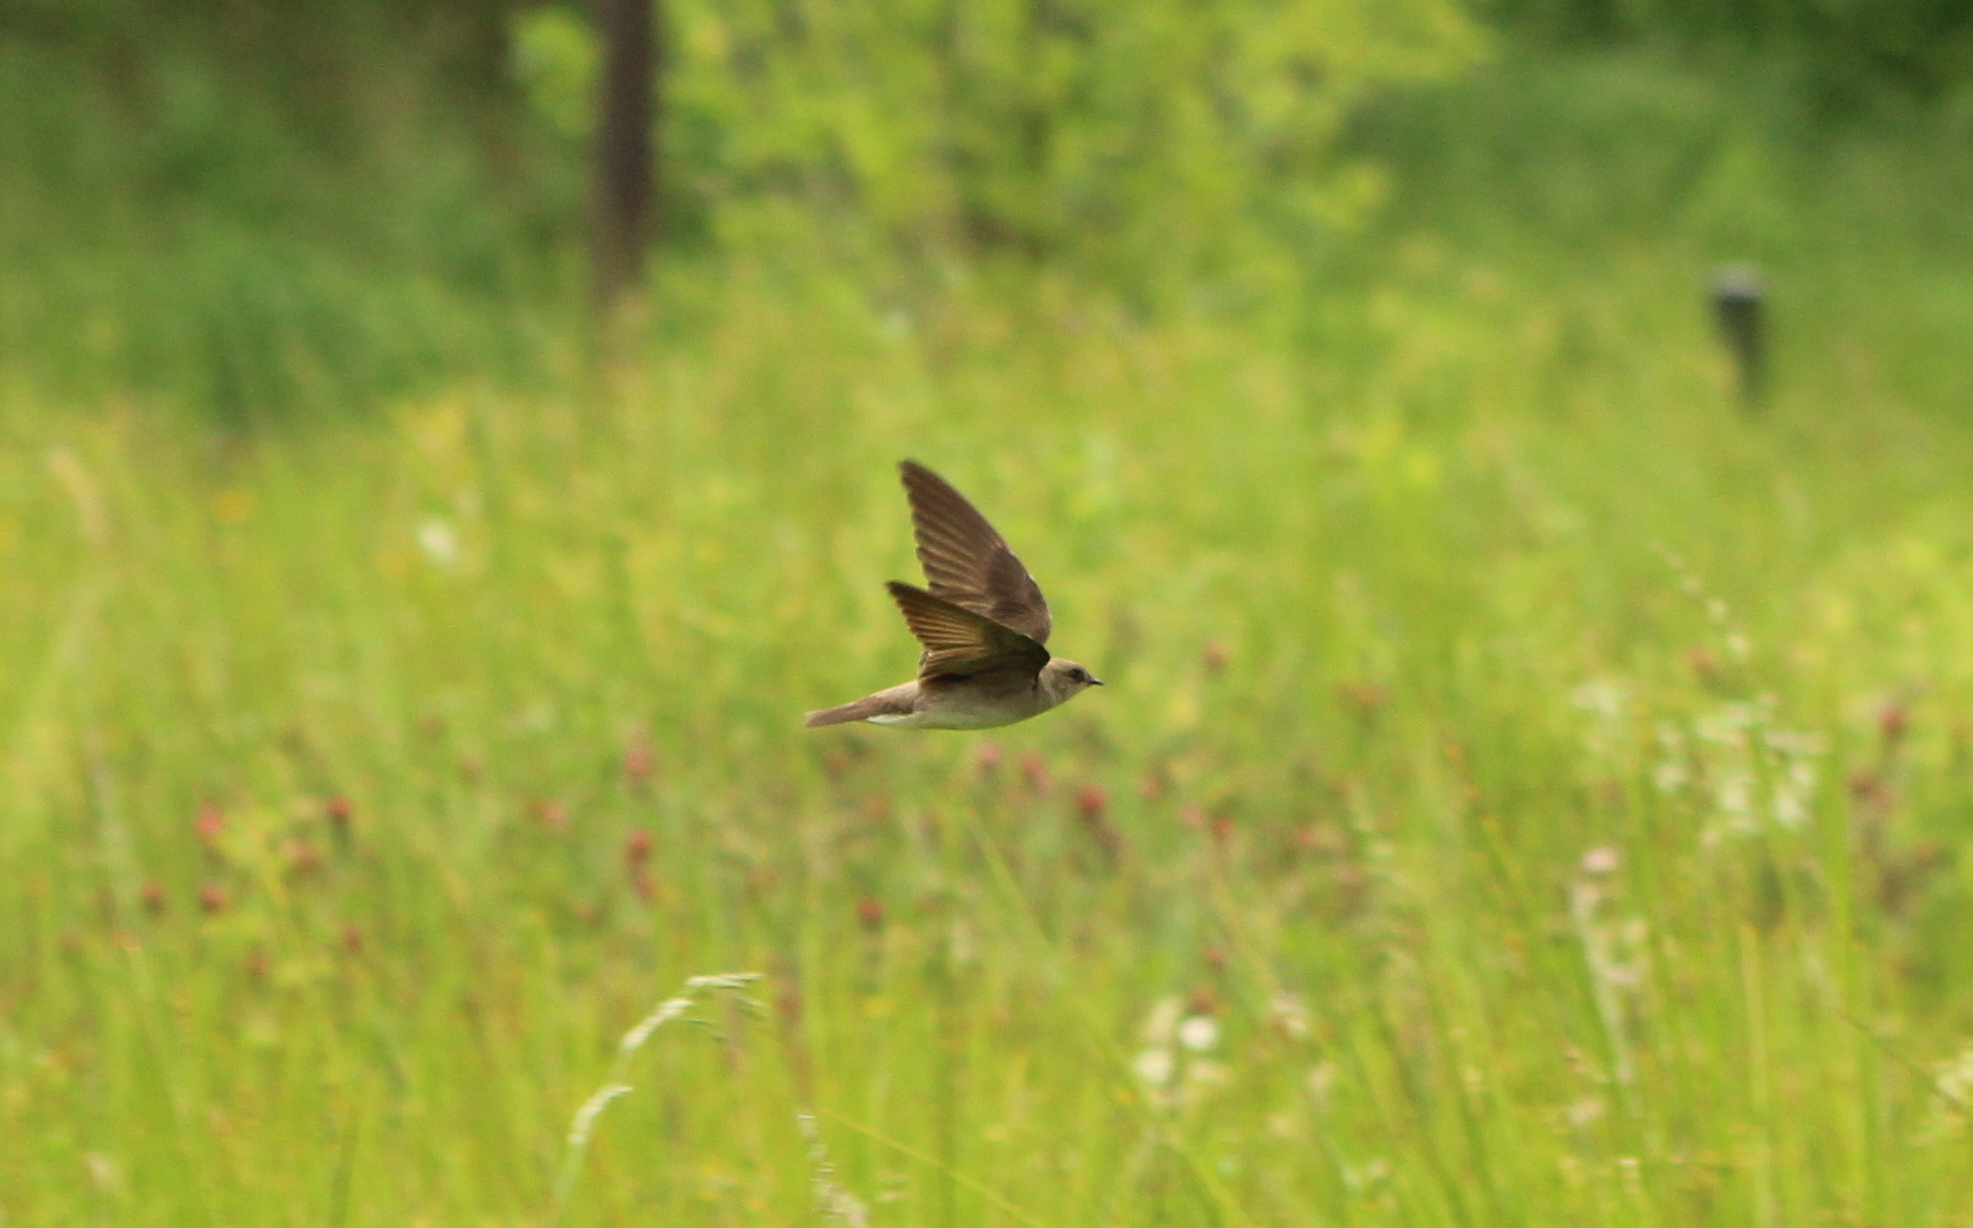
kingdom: Animalia
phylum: Chordata
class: Aves
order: Passeriformes
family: Hirundinidae
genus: Stelgidopteryx
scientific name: Stelgidopteryx serripennis
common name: Northern rough-winged swallow
